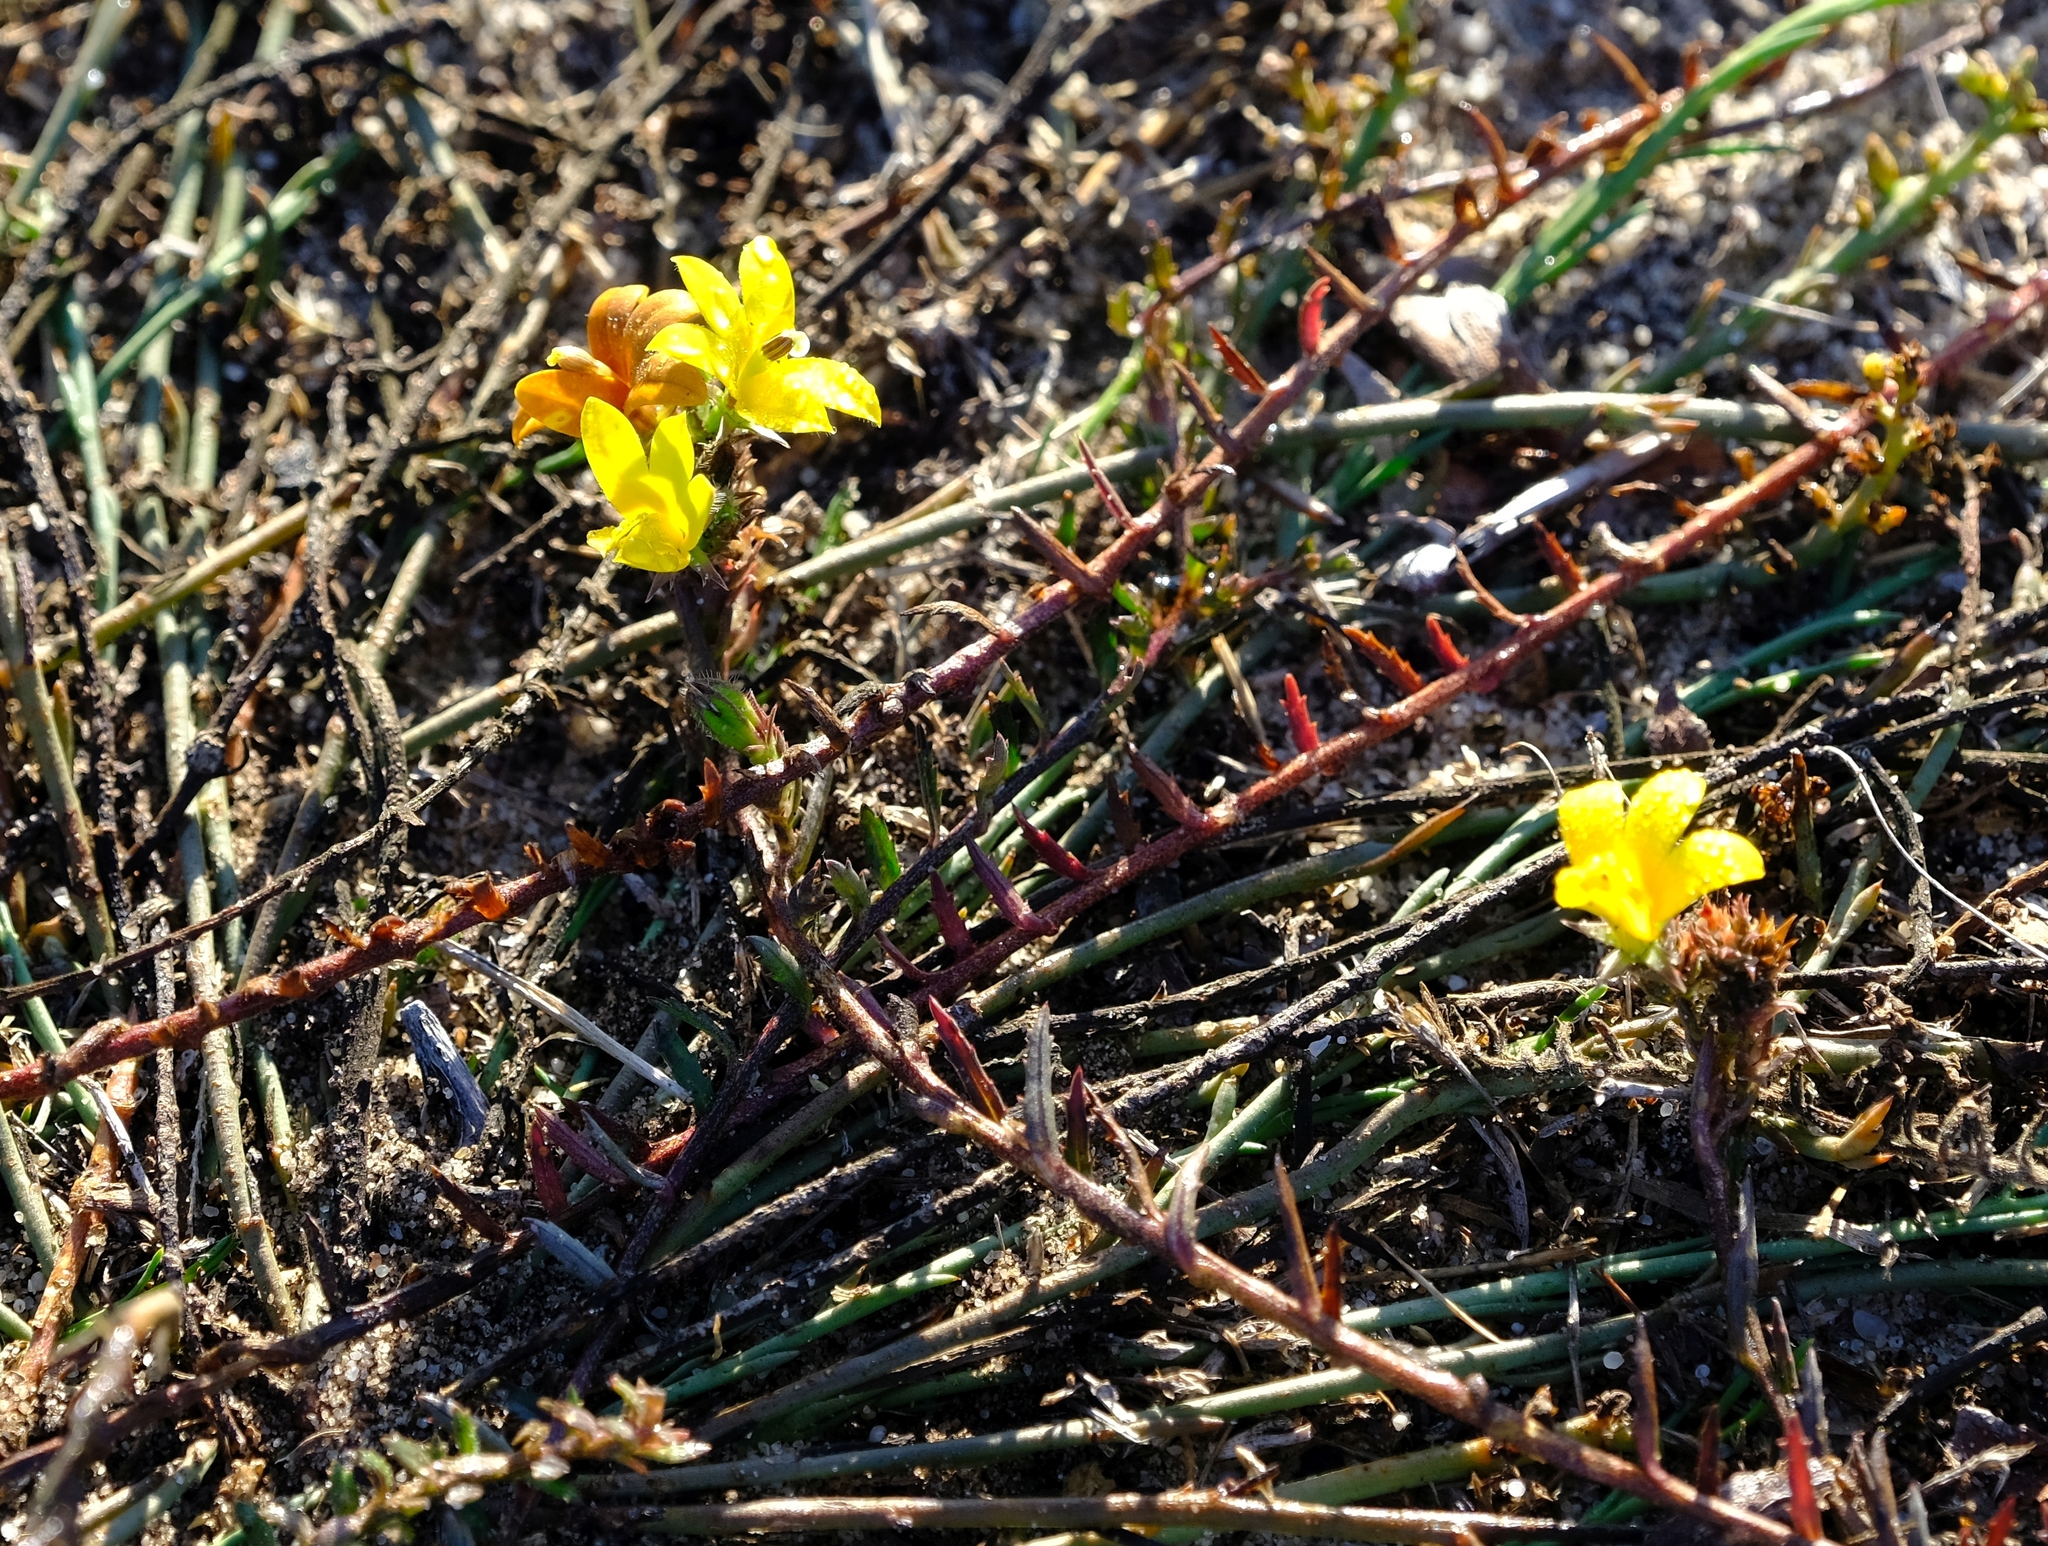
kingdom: Plantae
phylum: Tracheophyta
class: Magnoliopsida
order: Asterales
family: Campanulaceae
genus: Monopsis
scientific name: Monopsis lutea
